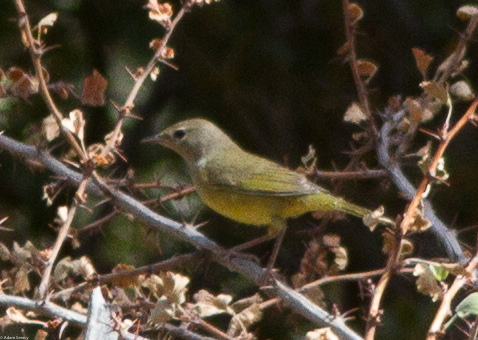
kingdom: Animalia
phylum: Chordata
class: Aves
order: Passeriformes
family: Parulidae
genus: Geothlypis
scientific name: Geothlypis tolmiei
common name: Macgillivray's warbler
